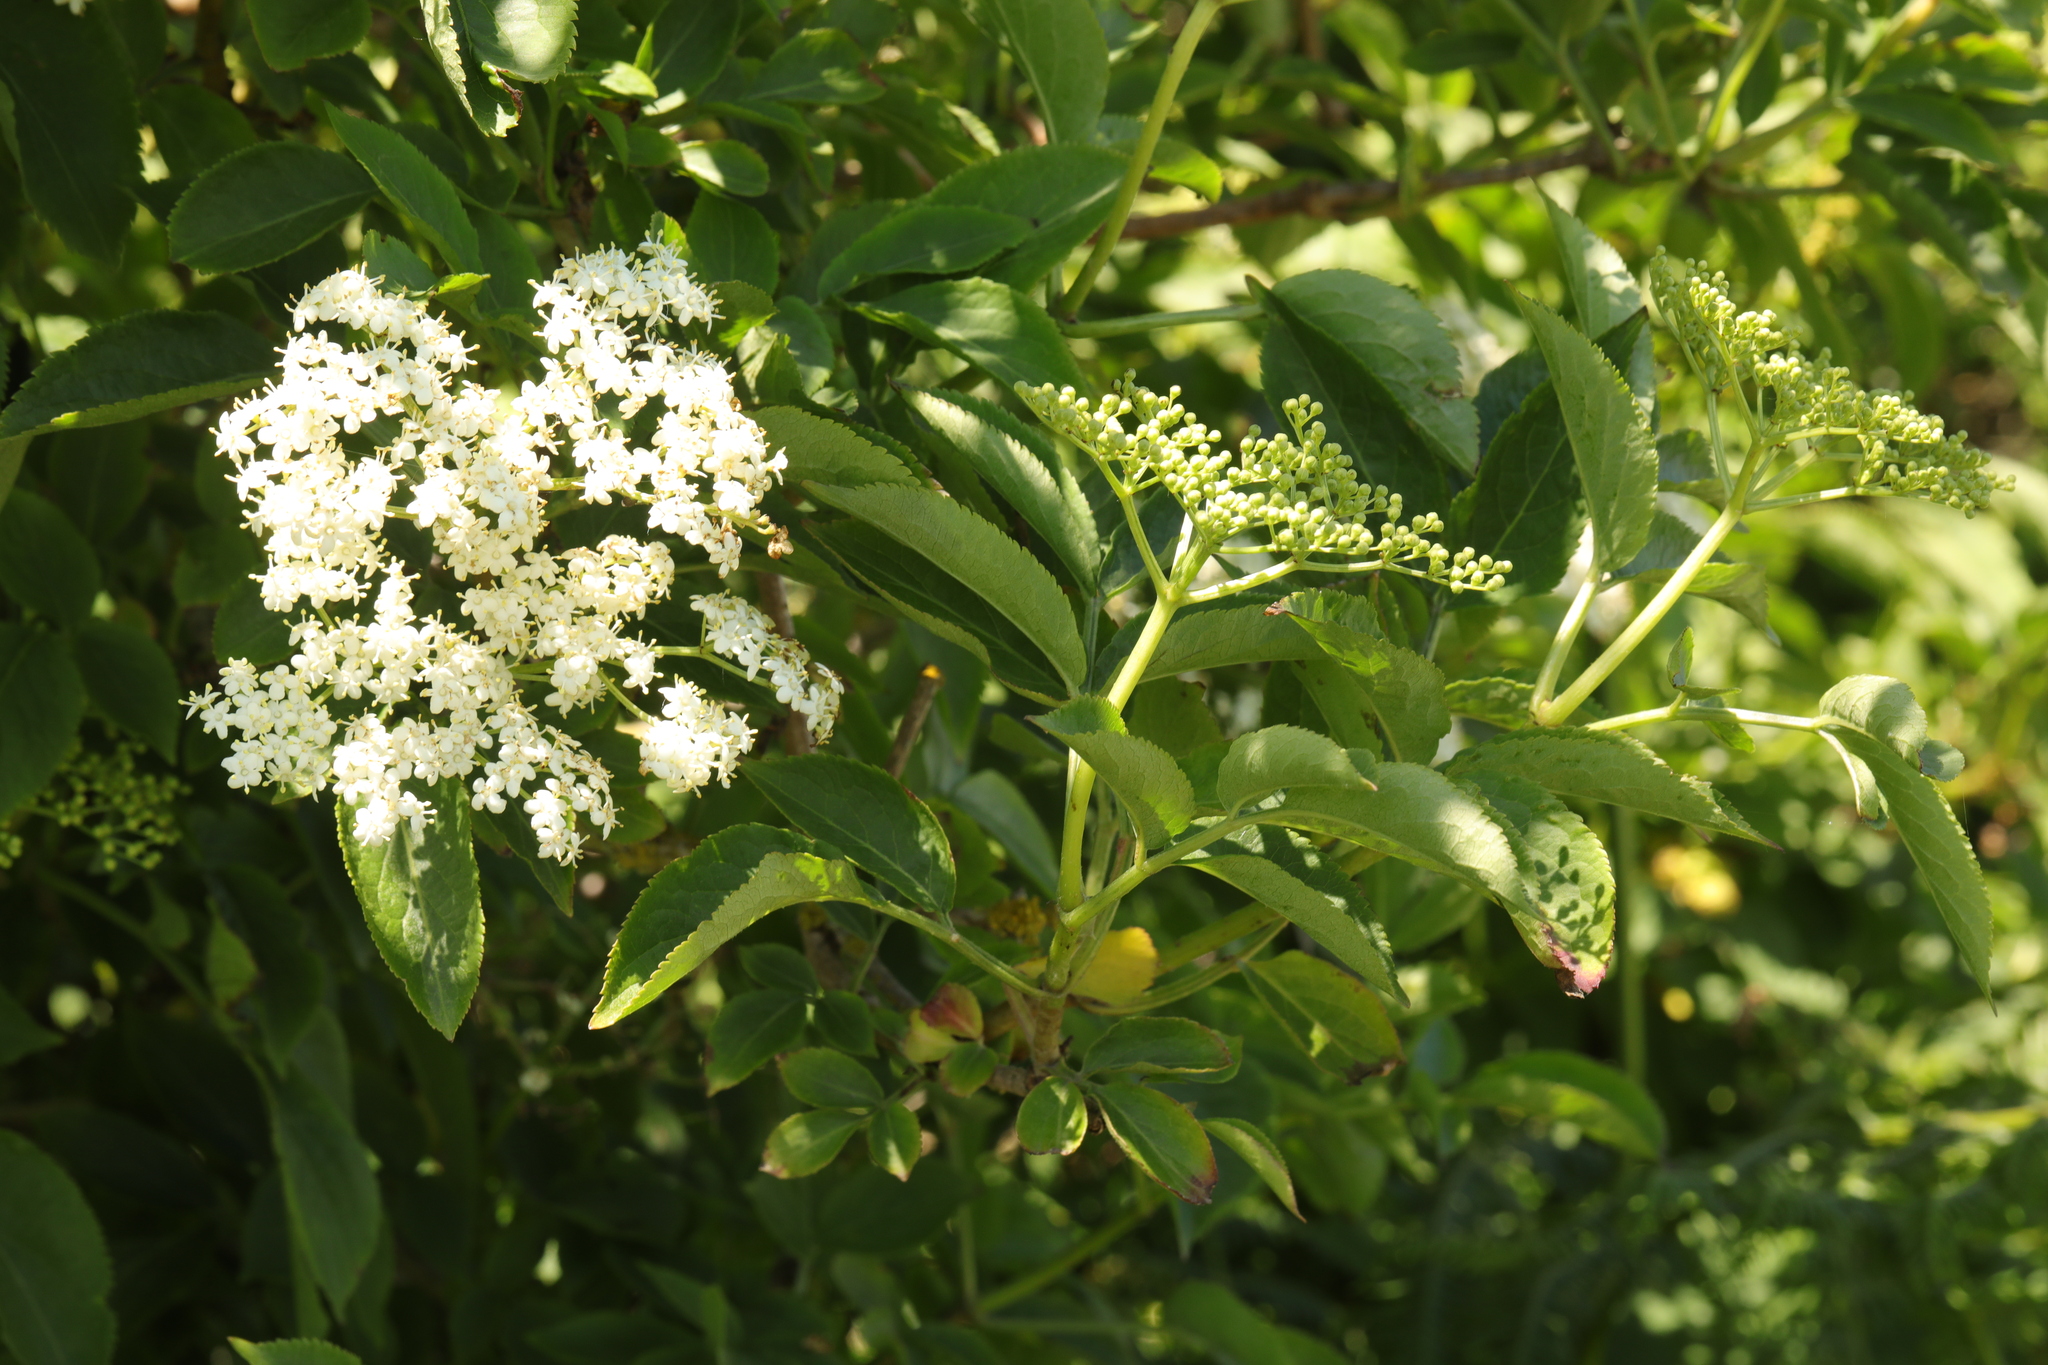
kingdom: Plantae
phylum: Tracheophyta
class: Magnoliopsida
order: Dipsacales
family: Viburnaceae
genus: Sambucus
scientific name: Sambucus nigra
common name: Elder
